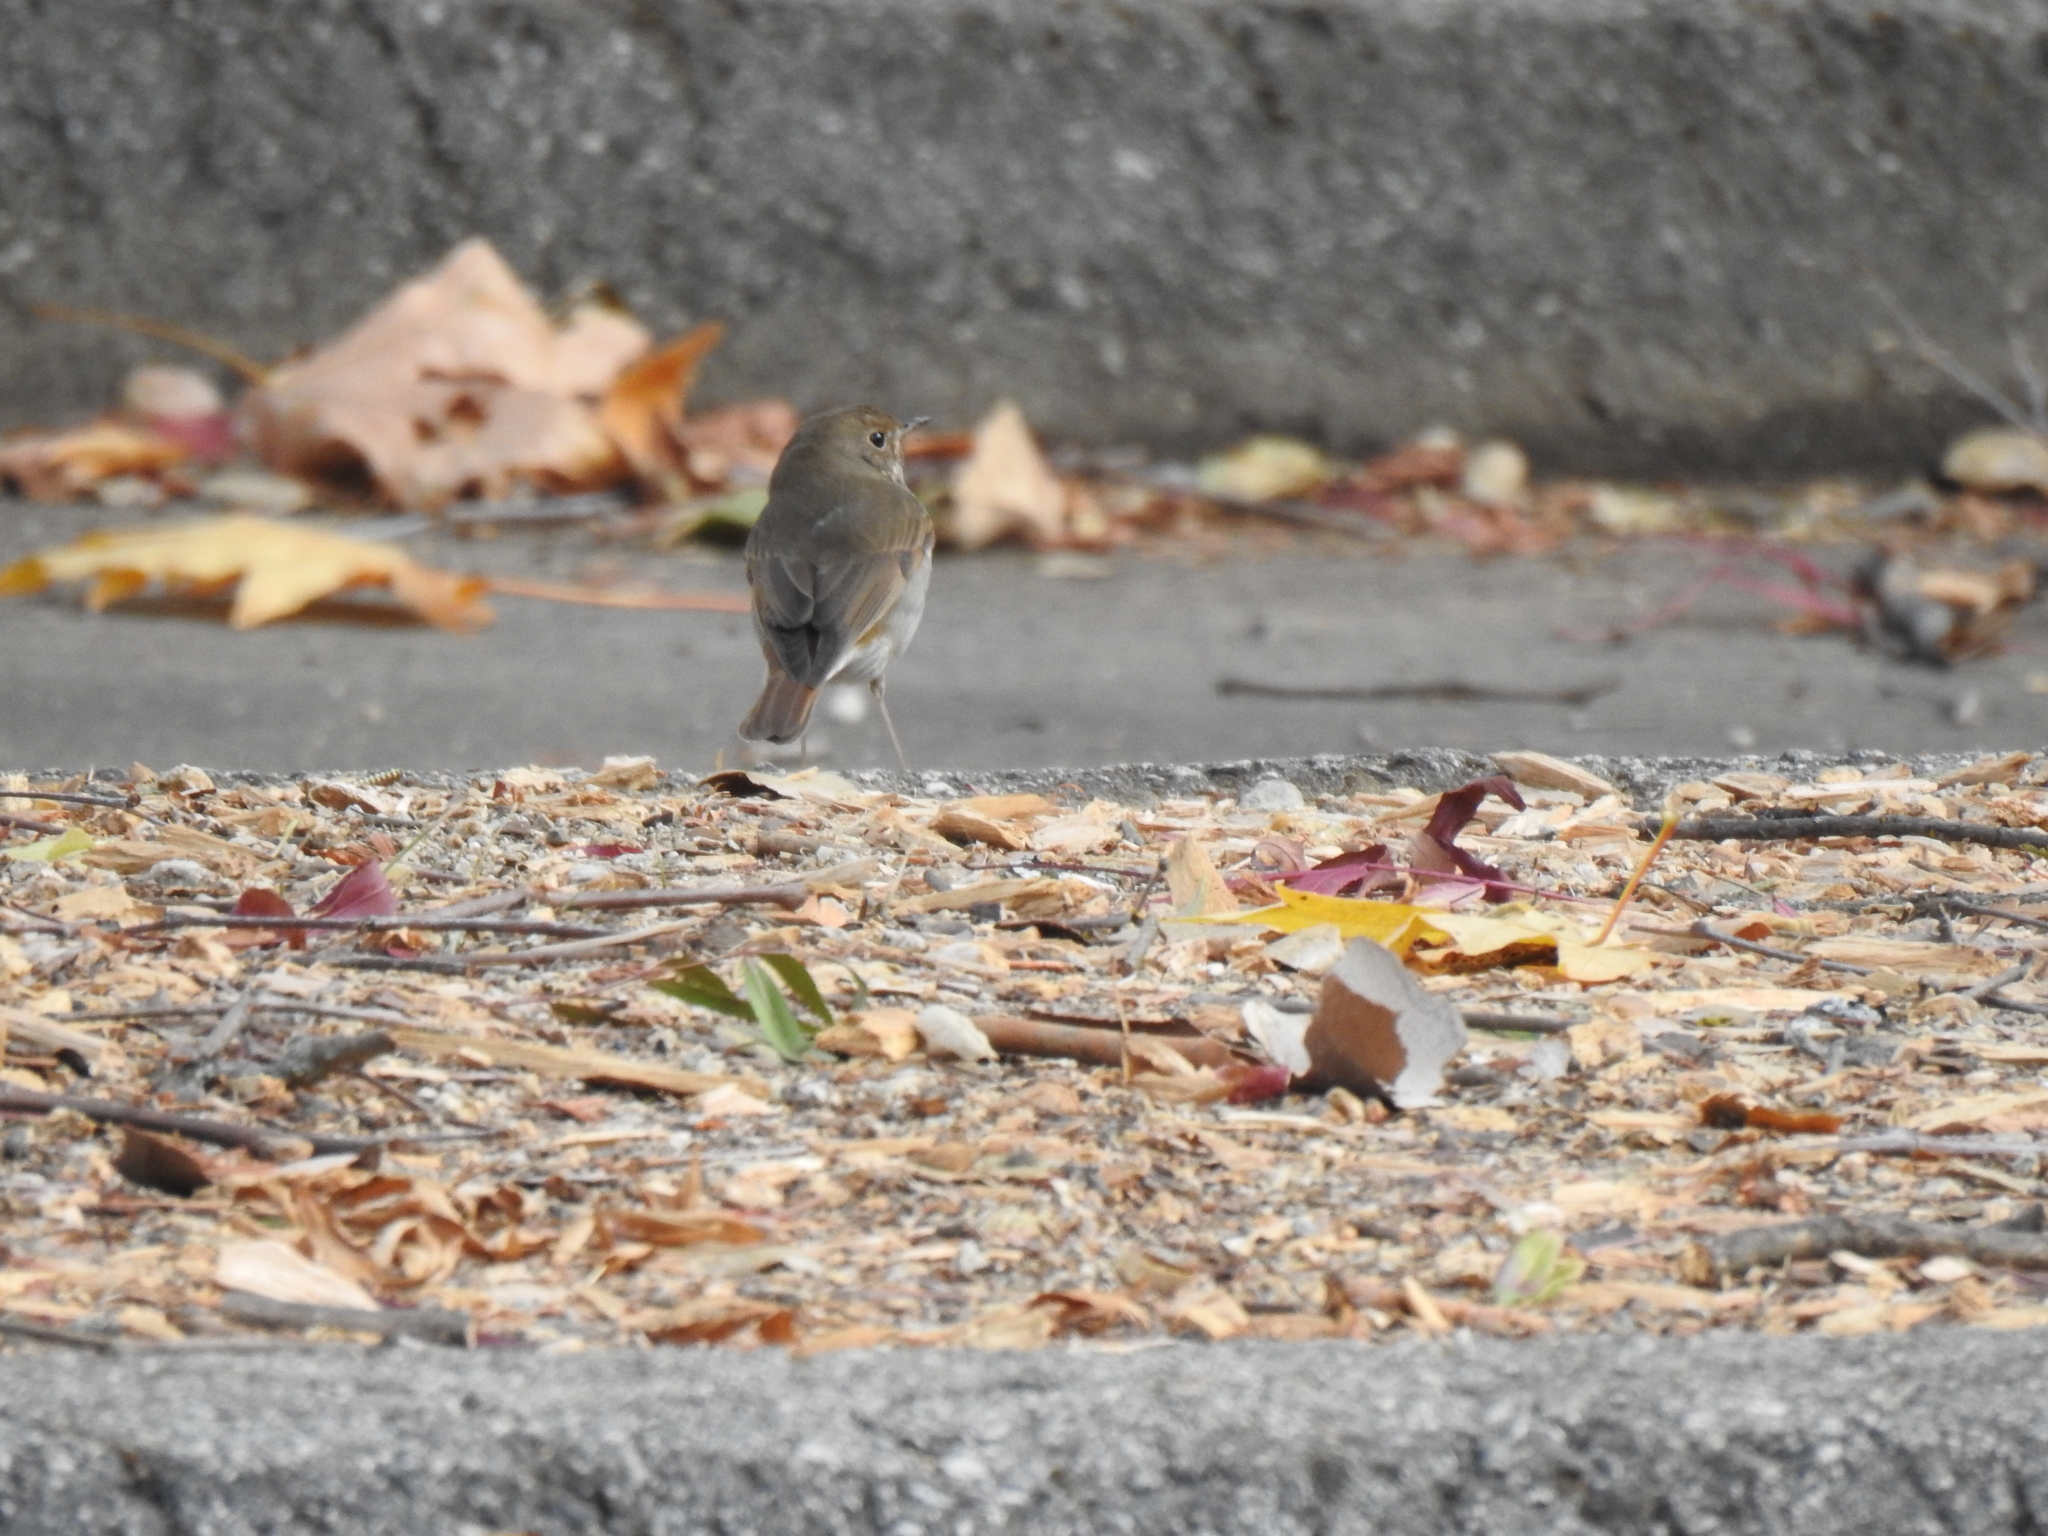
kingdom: Animalia
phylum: Chordata
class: Aves
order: Passeriformes
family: Turdidae
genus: Catharus
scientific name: Catharus guttatus
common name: Hermit thrush
